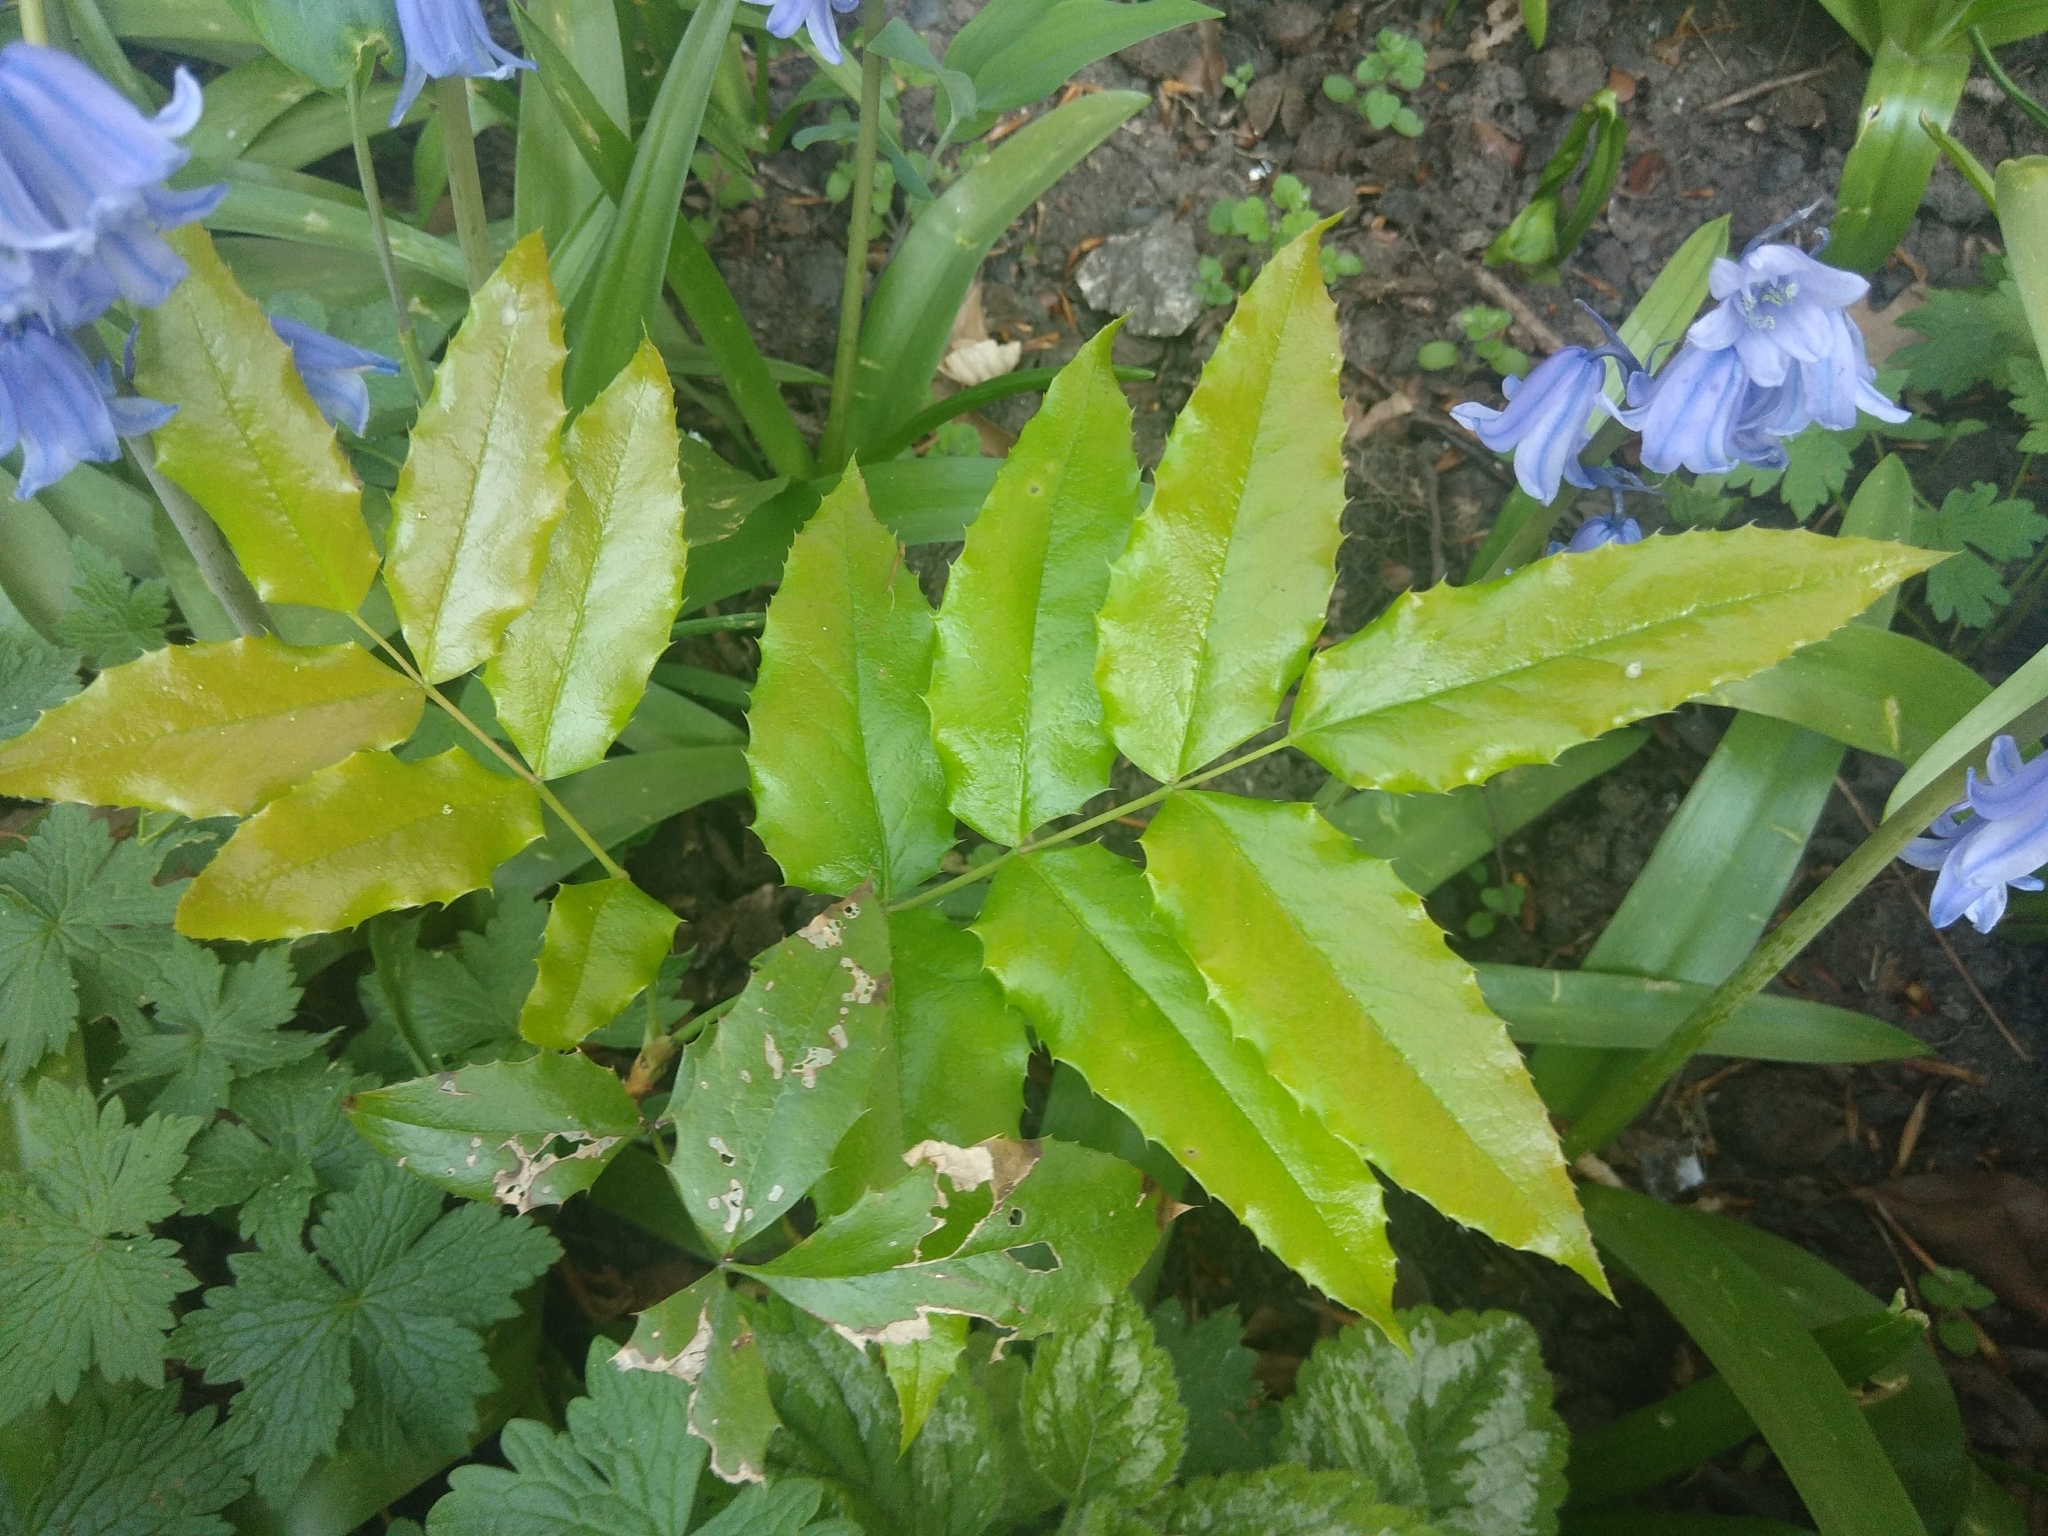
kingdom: Plantae
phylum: Tracheophyta
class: Magnoliopsida
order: Ranunculales
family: Berberidaceae
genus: Mahonia
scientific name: Mahonia aquifolium
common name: Oregon-grape
